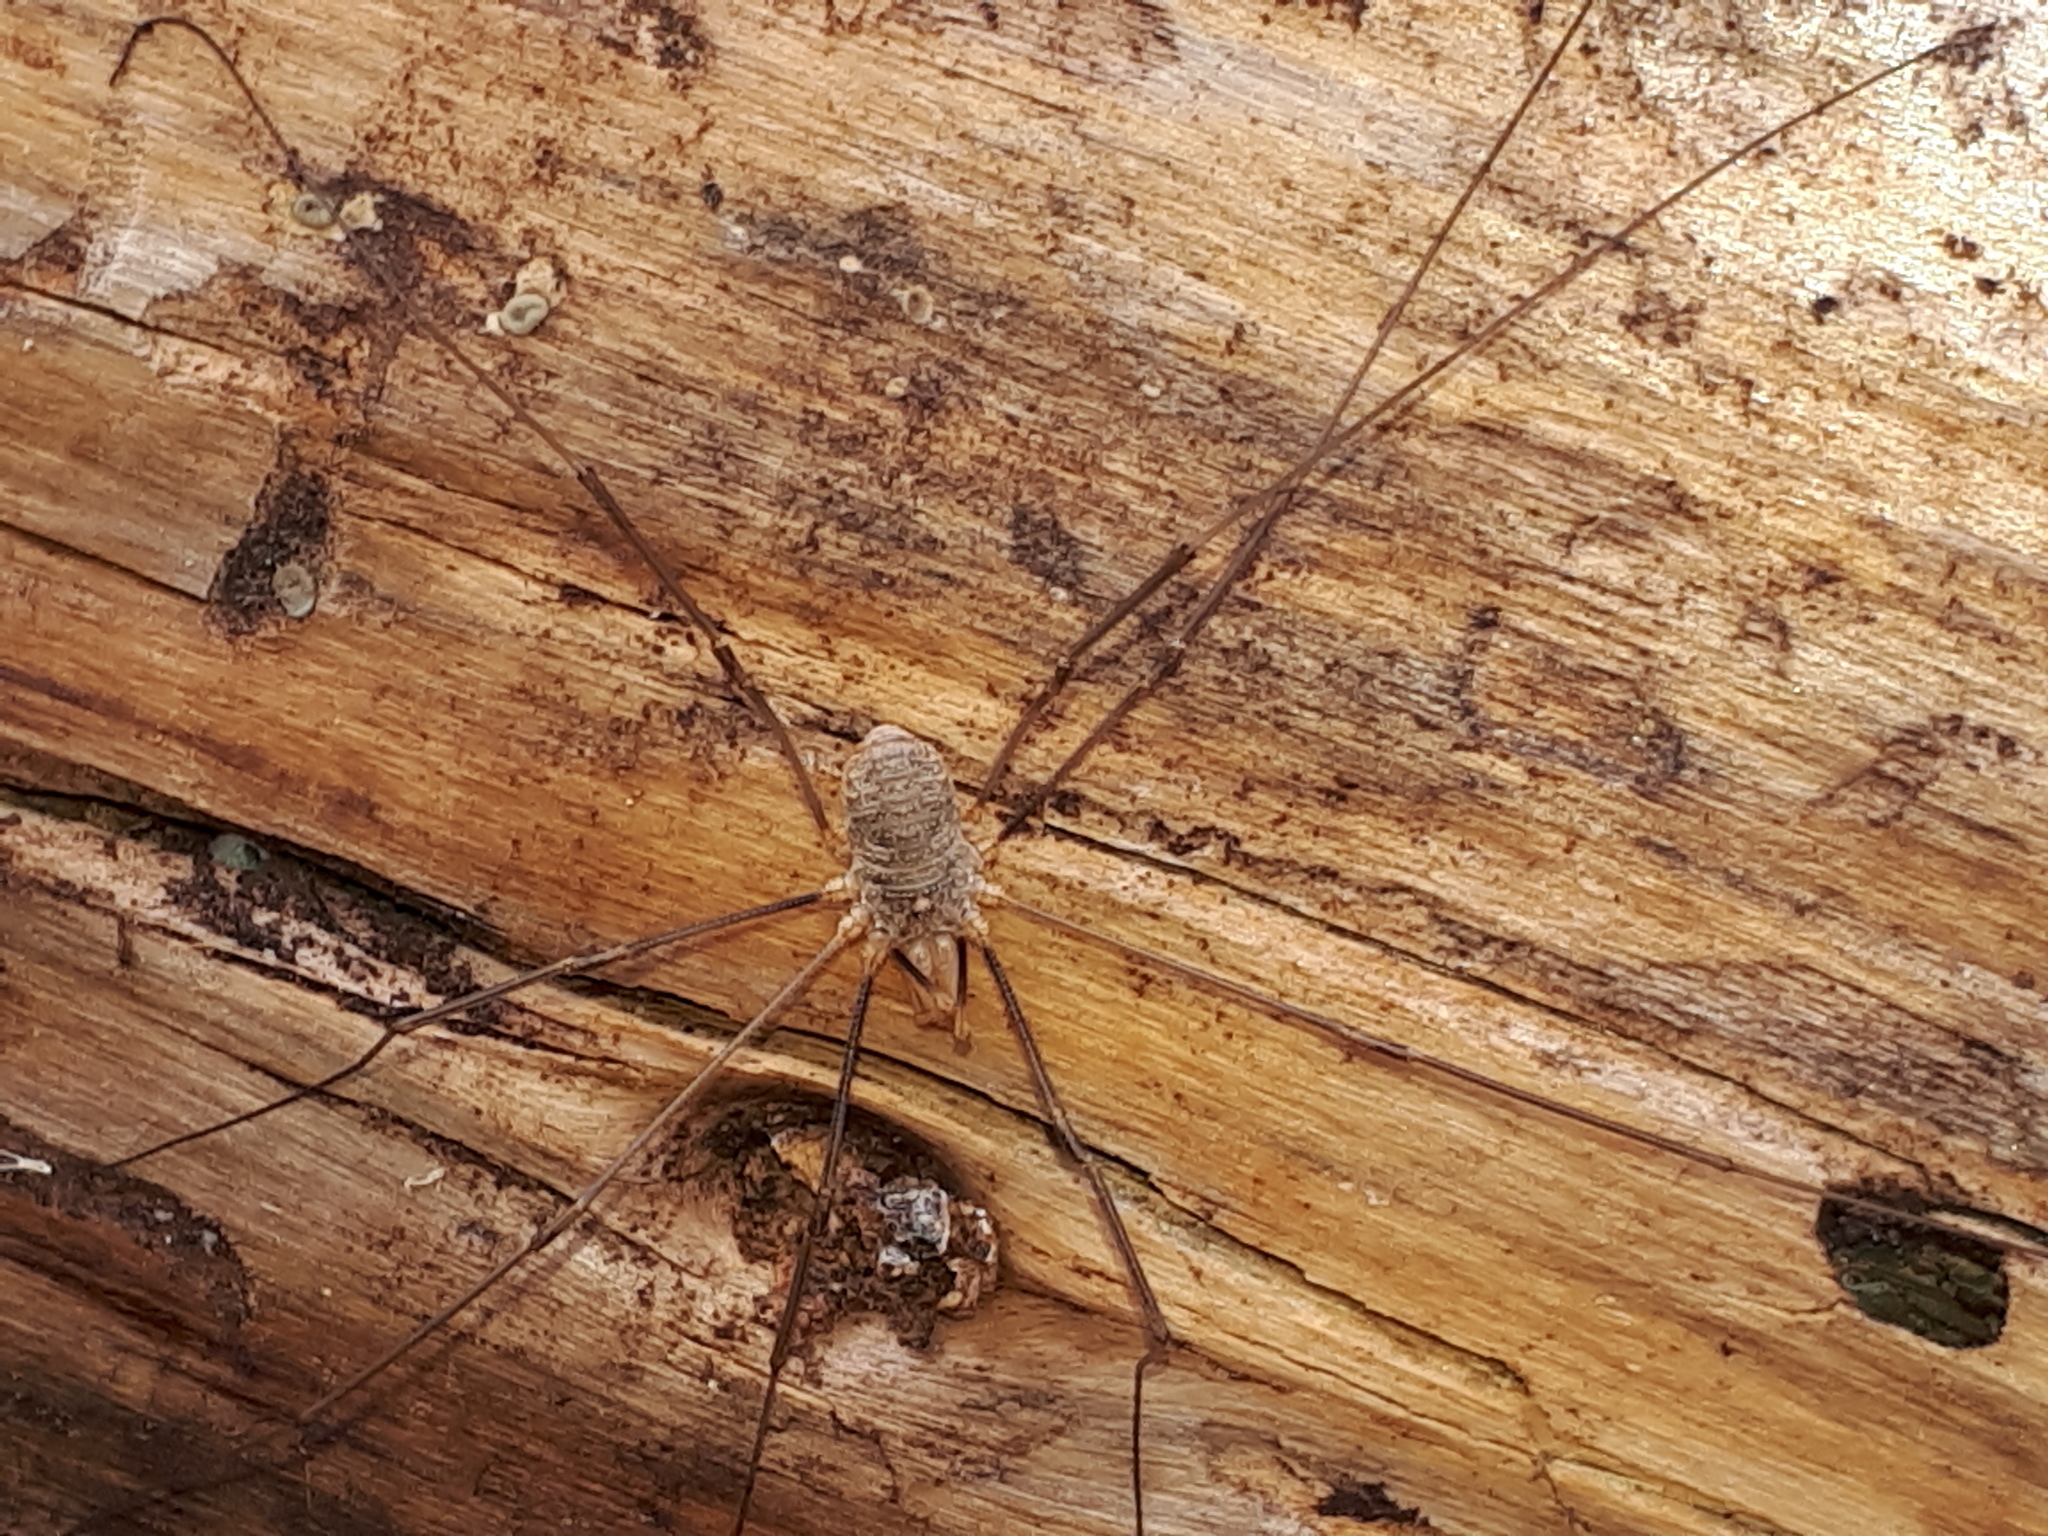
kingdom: Animalia
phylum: Arthropoda
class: Arachnida
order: Opiliones
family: Phalangiidae
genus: Phalangium
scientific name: Phalangium opilio
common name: Daddy longleg
